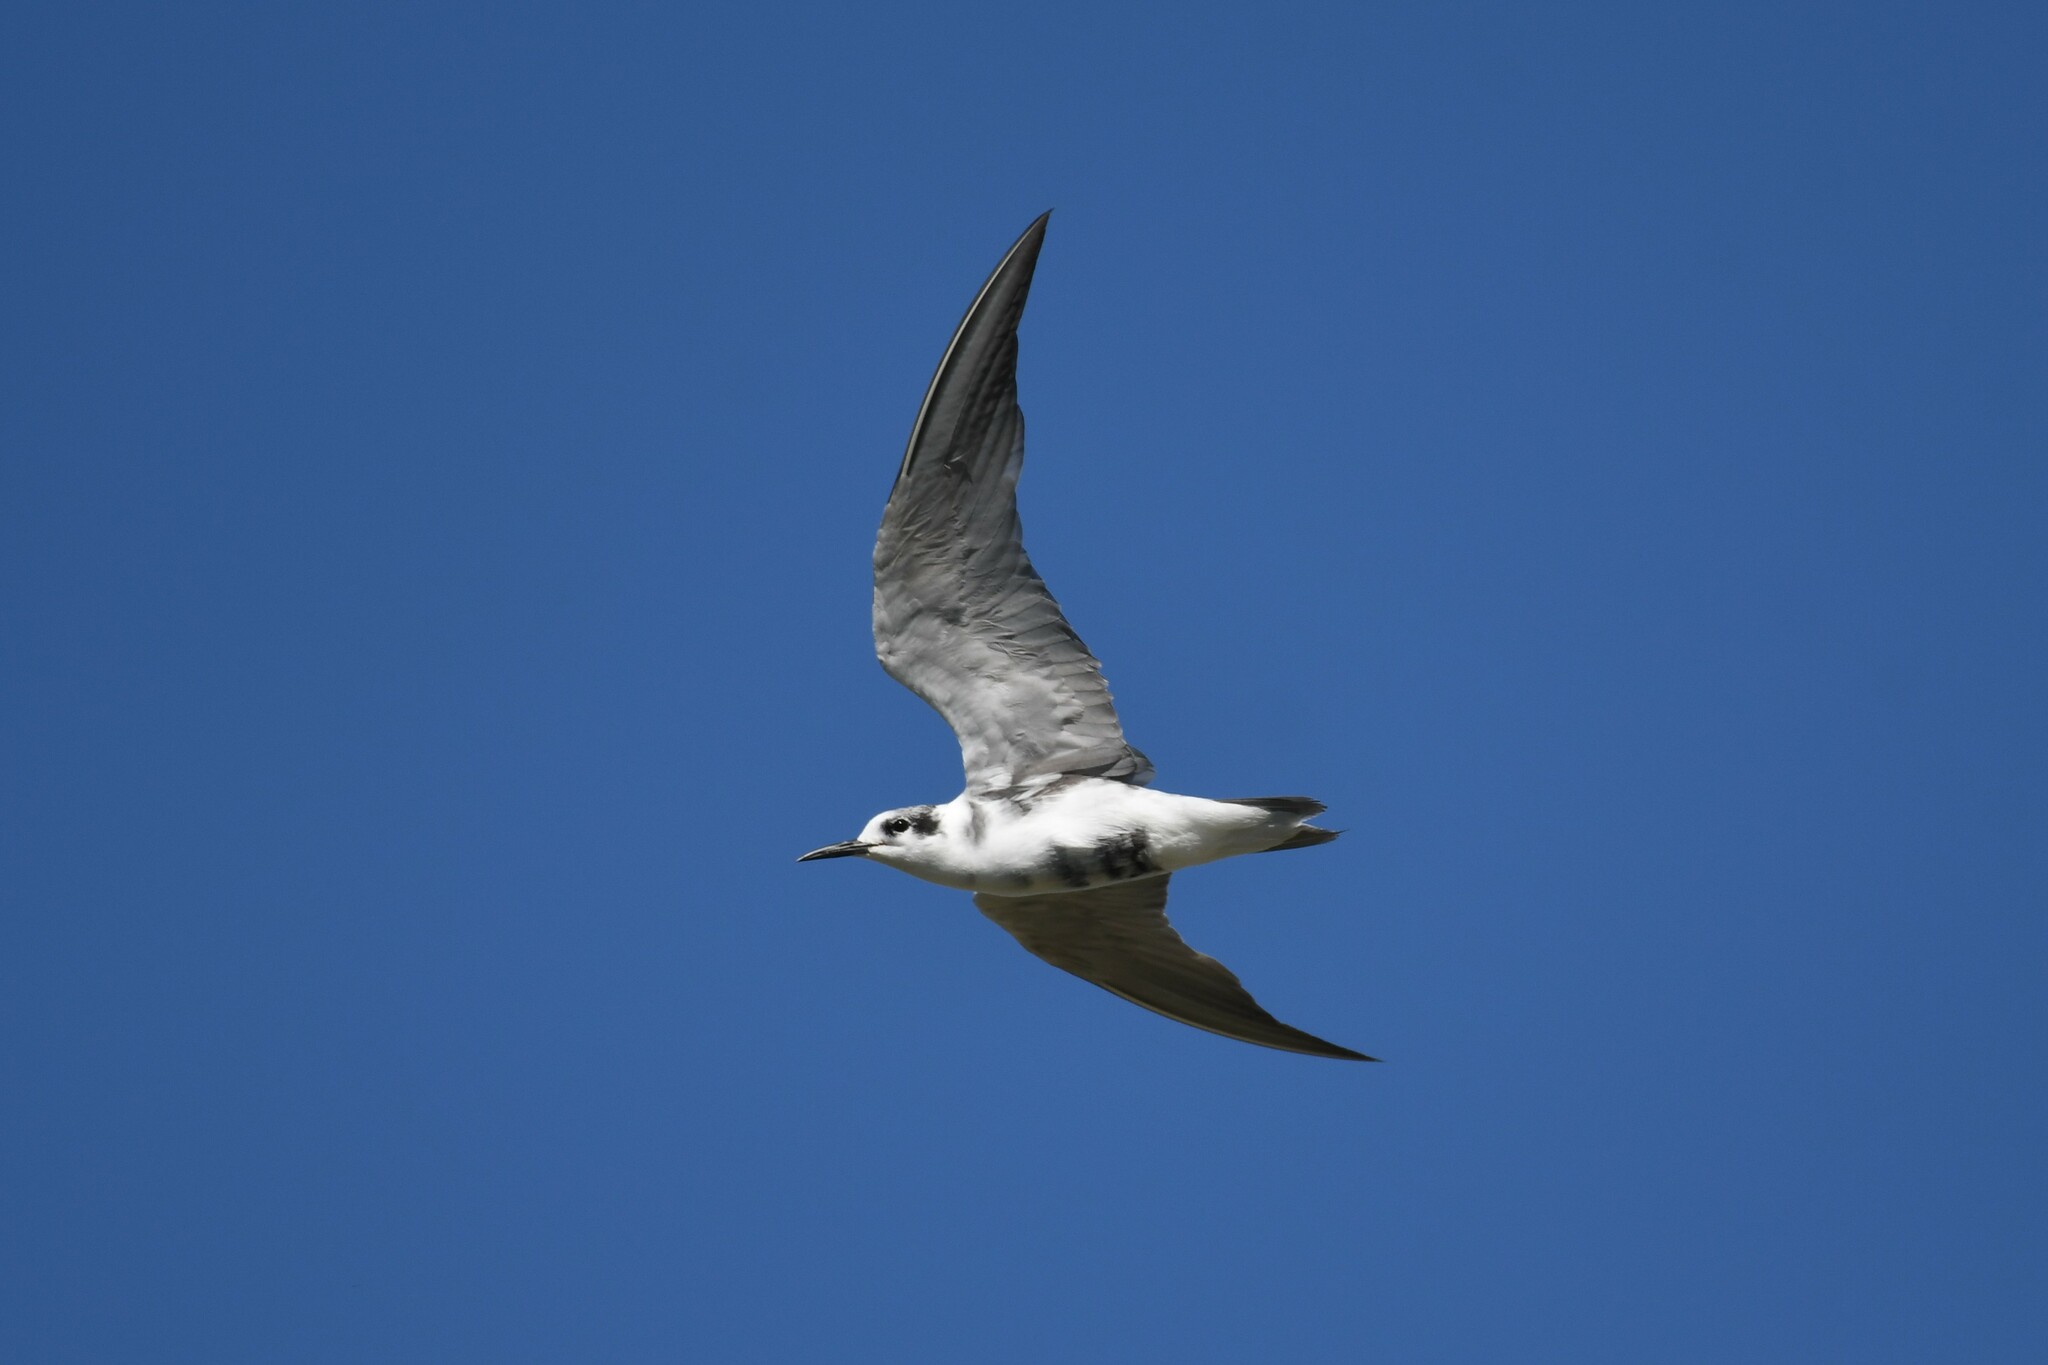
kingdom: Animalia
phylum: Chordata
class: Aves
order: Charadriiformes
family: Laridae
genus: Chlidonias
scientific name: Chlidonias niger
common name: Black tern
